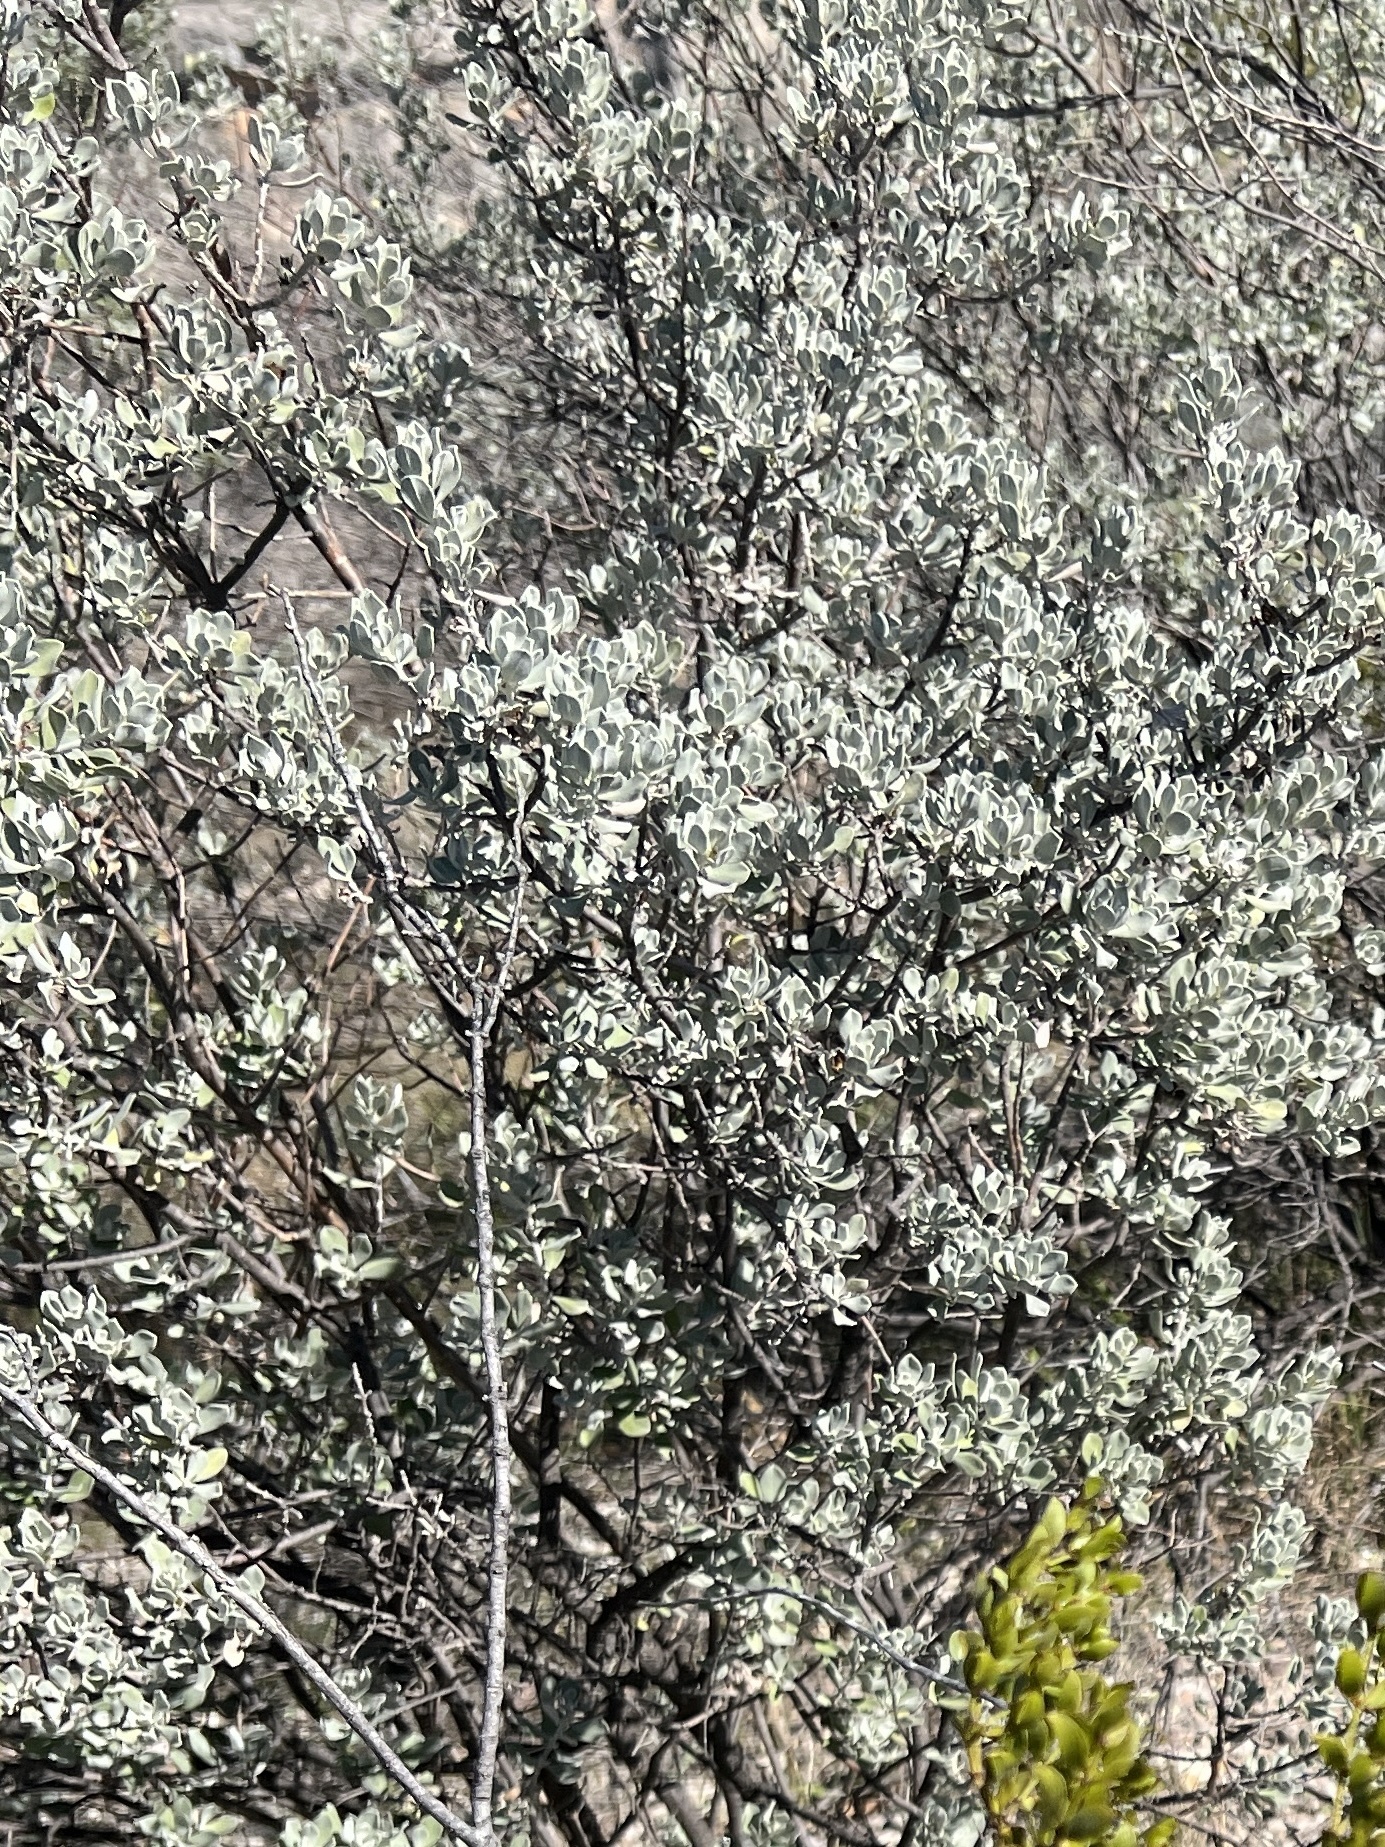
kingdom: Plantae
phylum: Tracheophyta
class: Magnoliopsida
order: Lamiales
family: Scrophulariaceae
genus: Leucophyllum
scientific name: Leucophyllum frutescens
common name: Texas silverleaf
